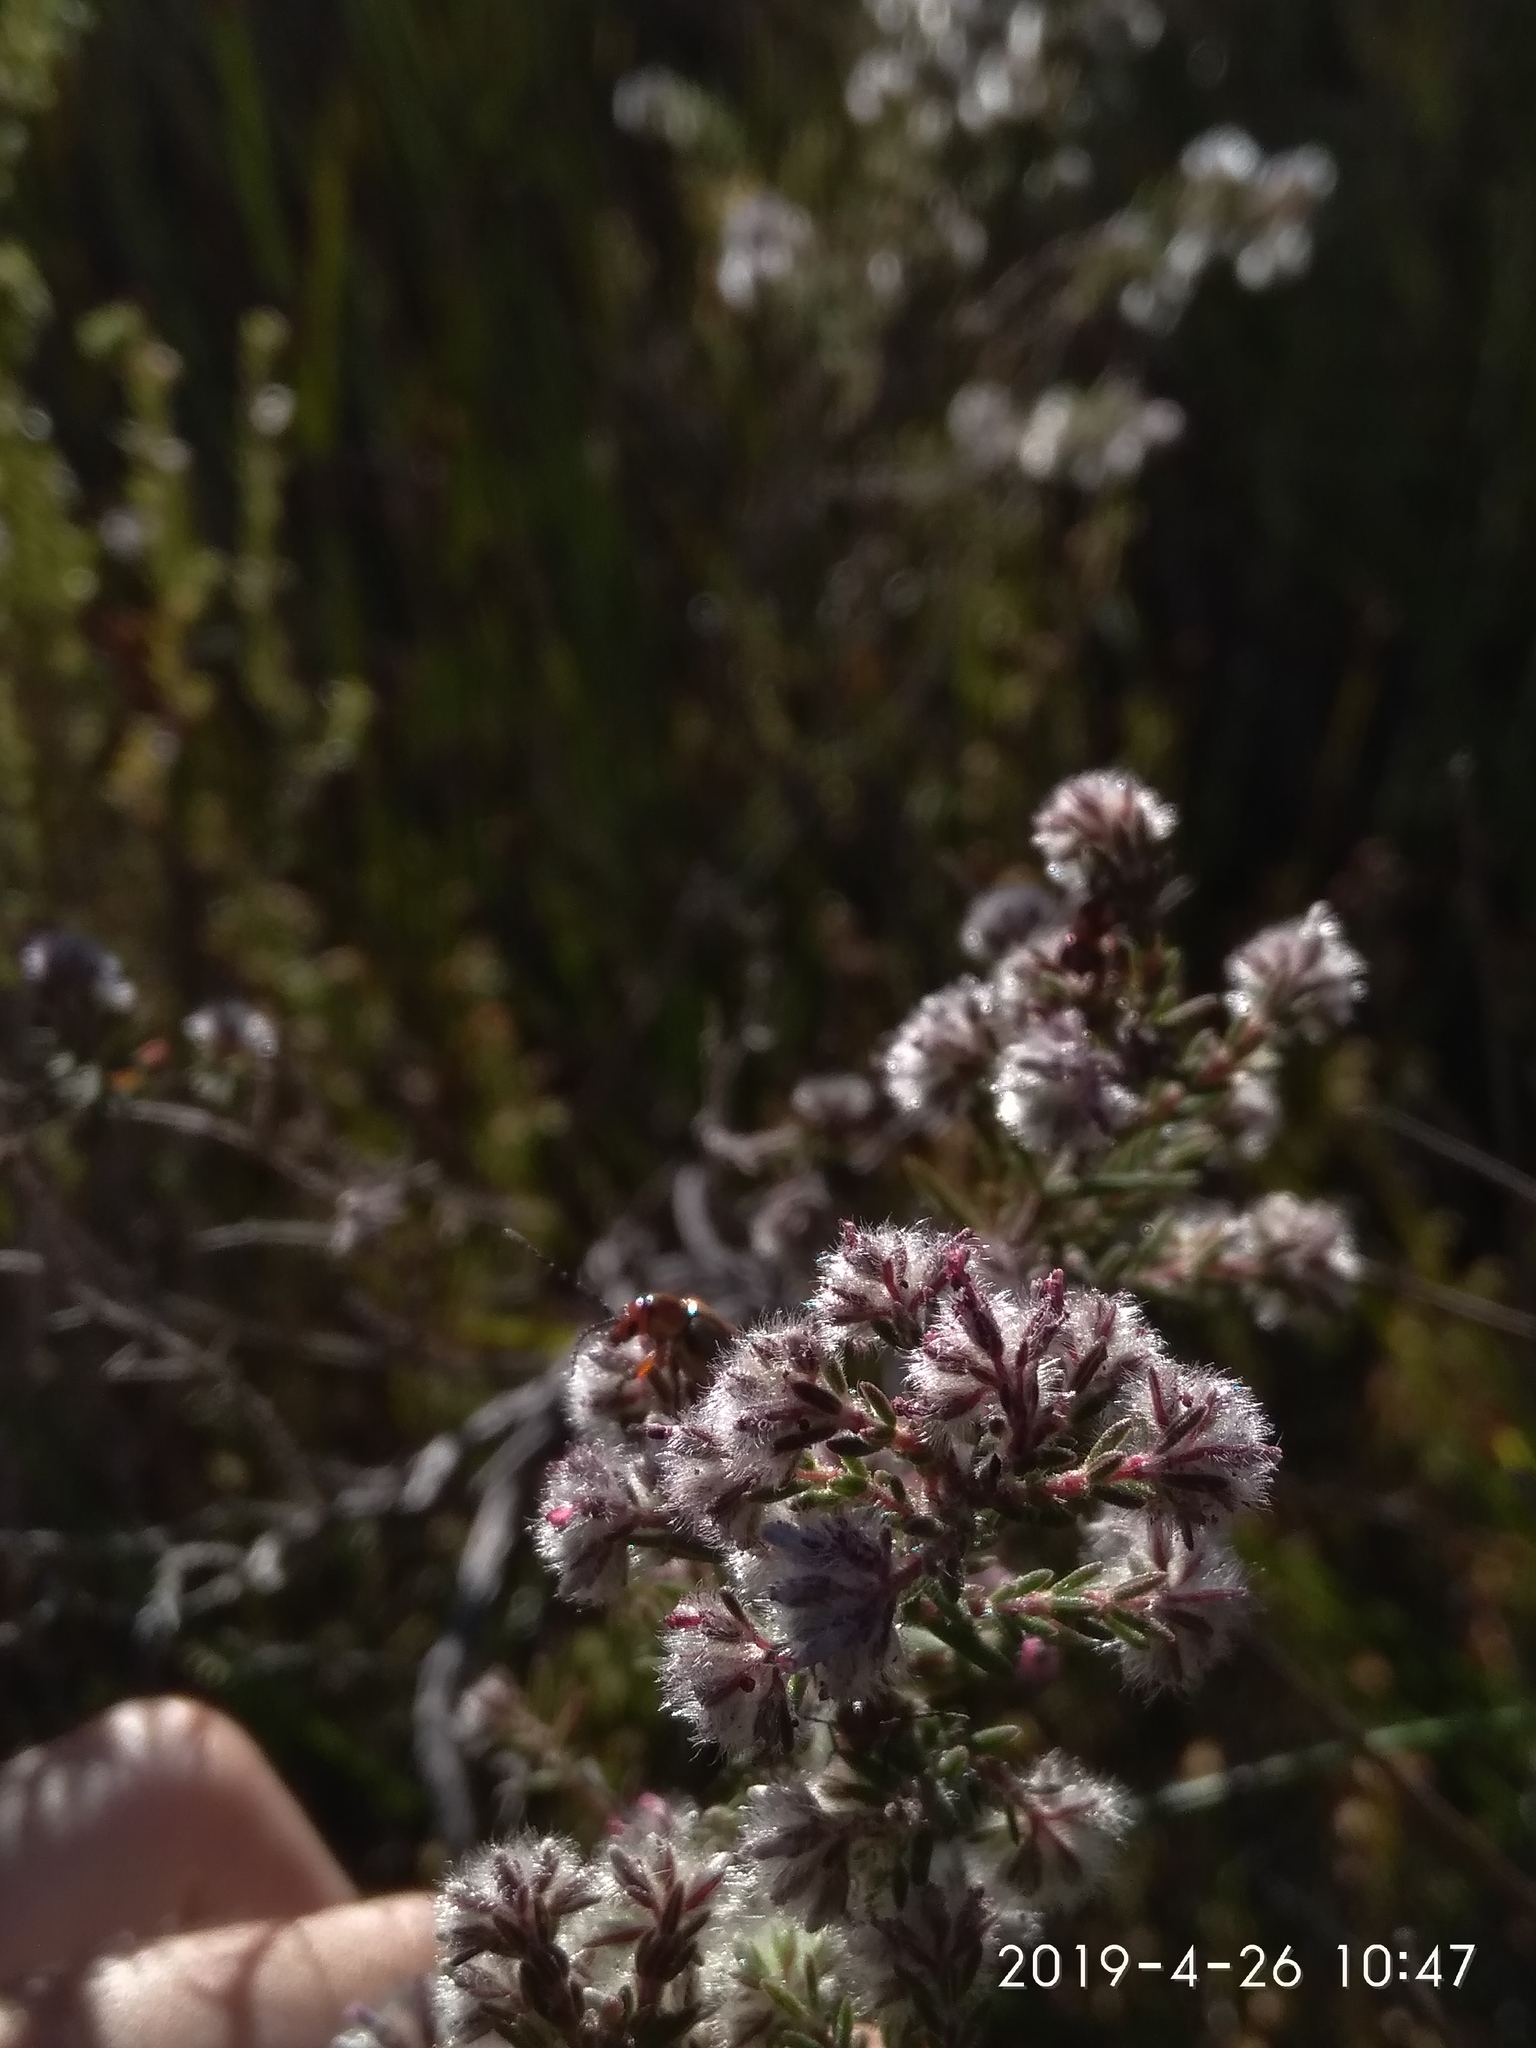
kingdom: Plantae
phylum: Tracheophyta
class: Magnoliopsida
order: Ericales
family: Ericaceae
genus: Erica
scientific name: Erica eriocephala
